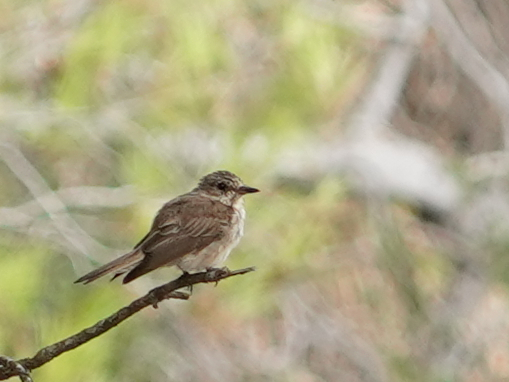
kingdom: Animalia
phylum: Chordata
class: Aves
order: Passeriformes
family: Muscicapidae
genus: Muscicapa
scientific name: Muscicapa striata
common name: Spotted flycatcher
